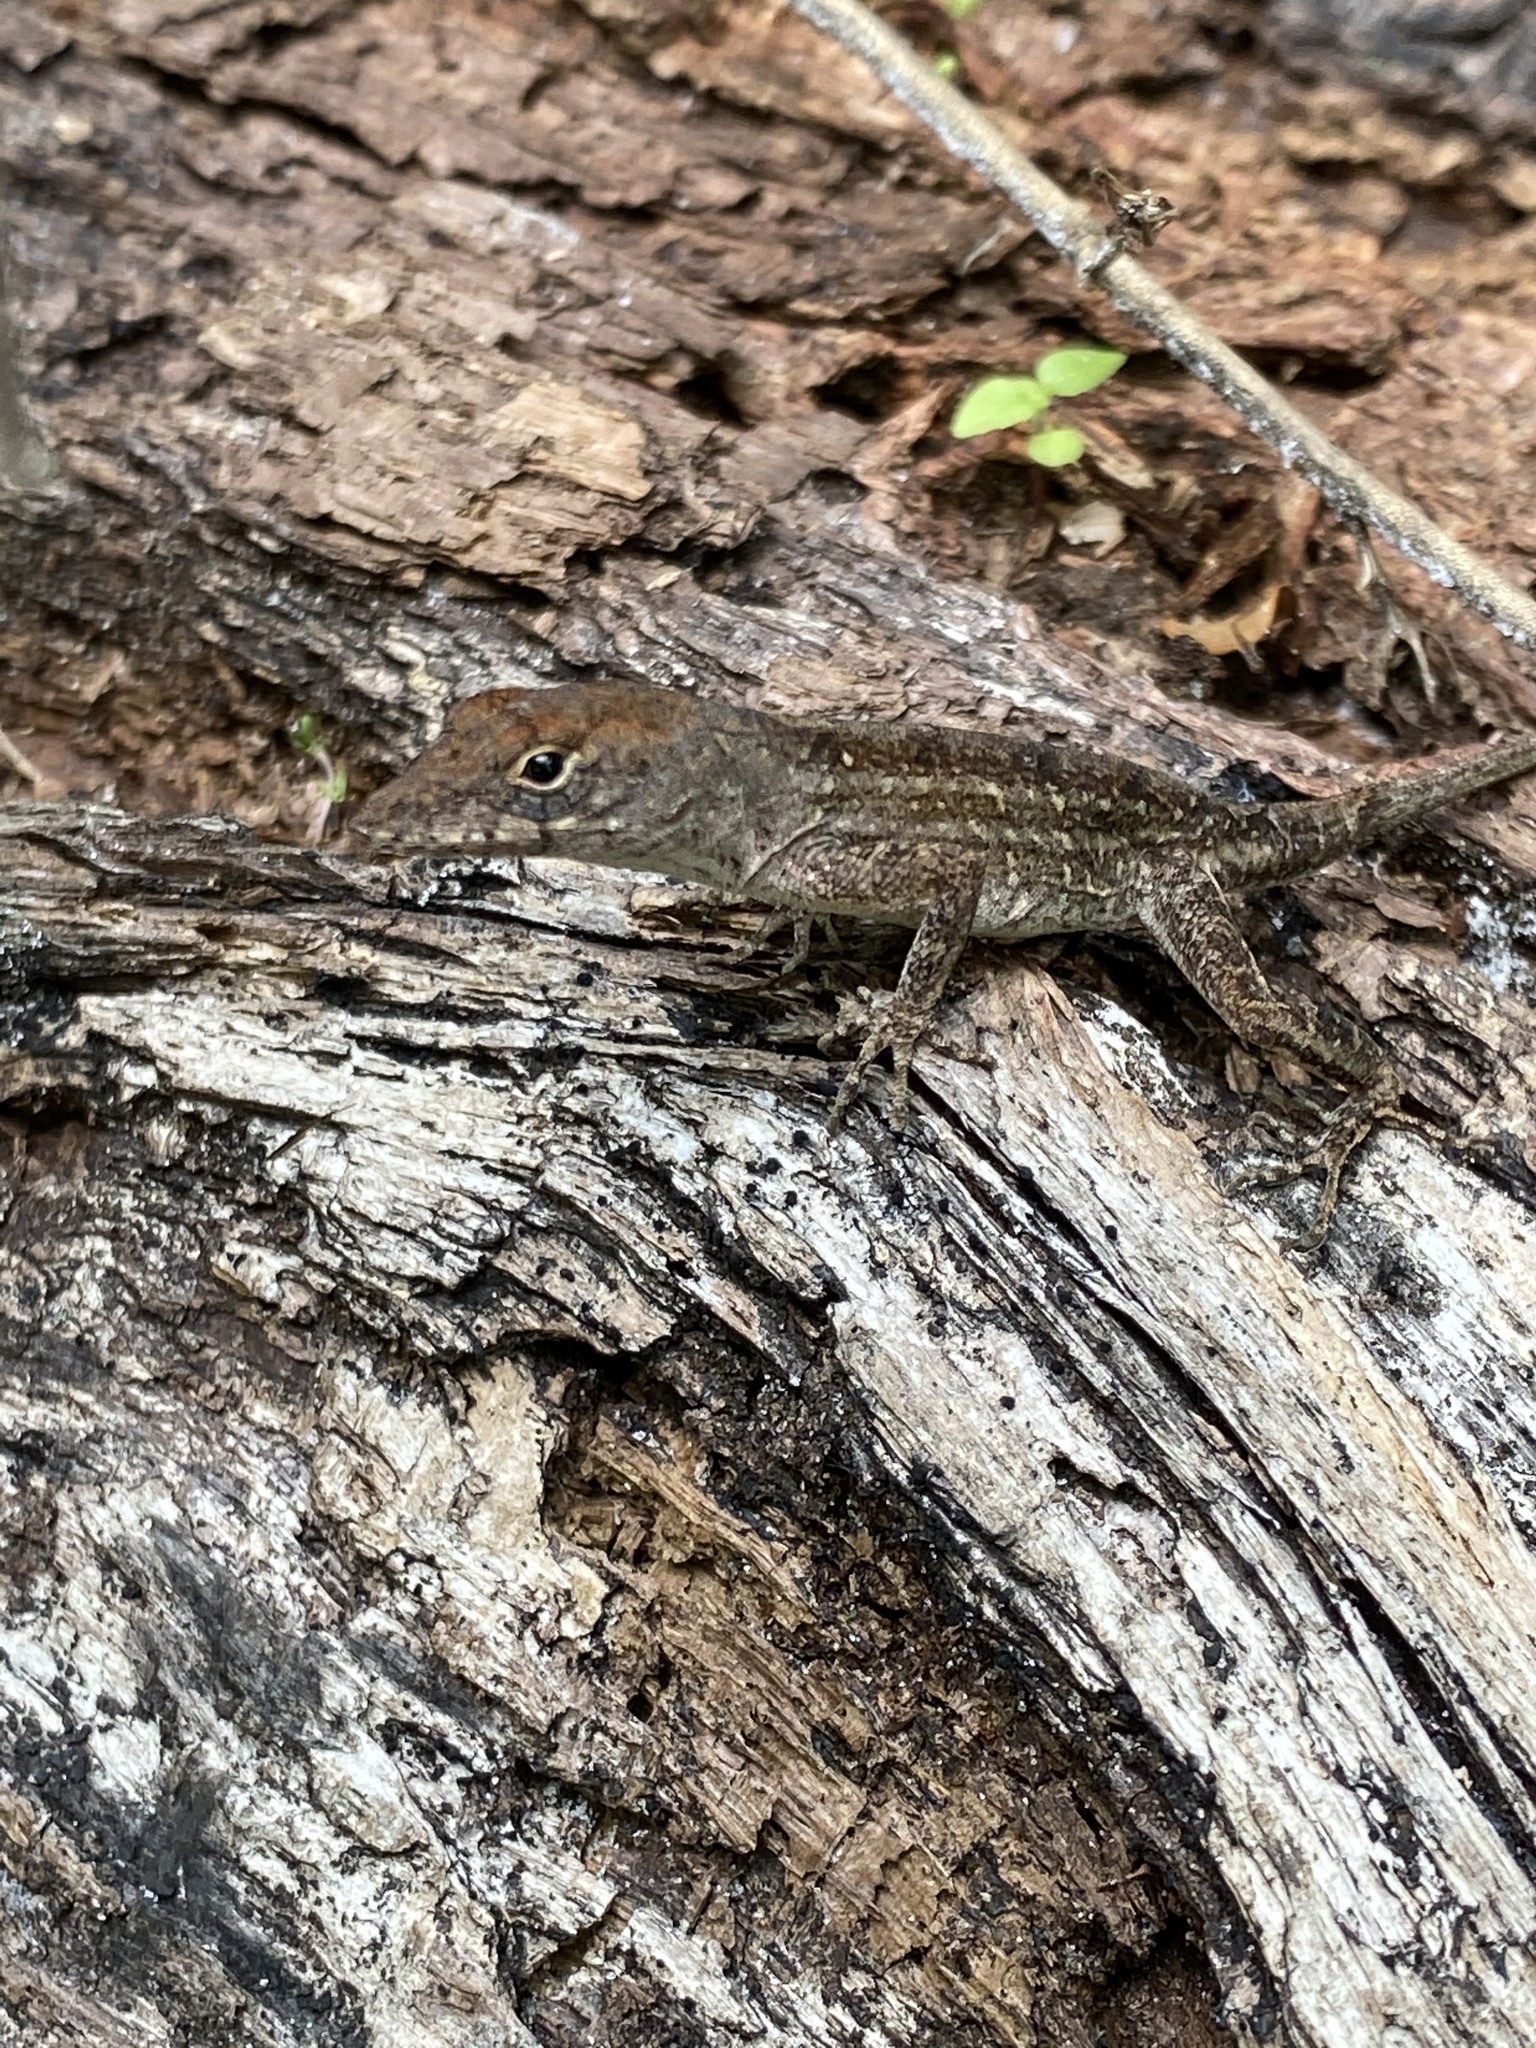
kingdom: Animalia
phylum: Chordata
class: Squamata
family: Dactyloidae
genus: Anolis
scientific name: Anolis sagrei
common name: Brown anole
